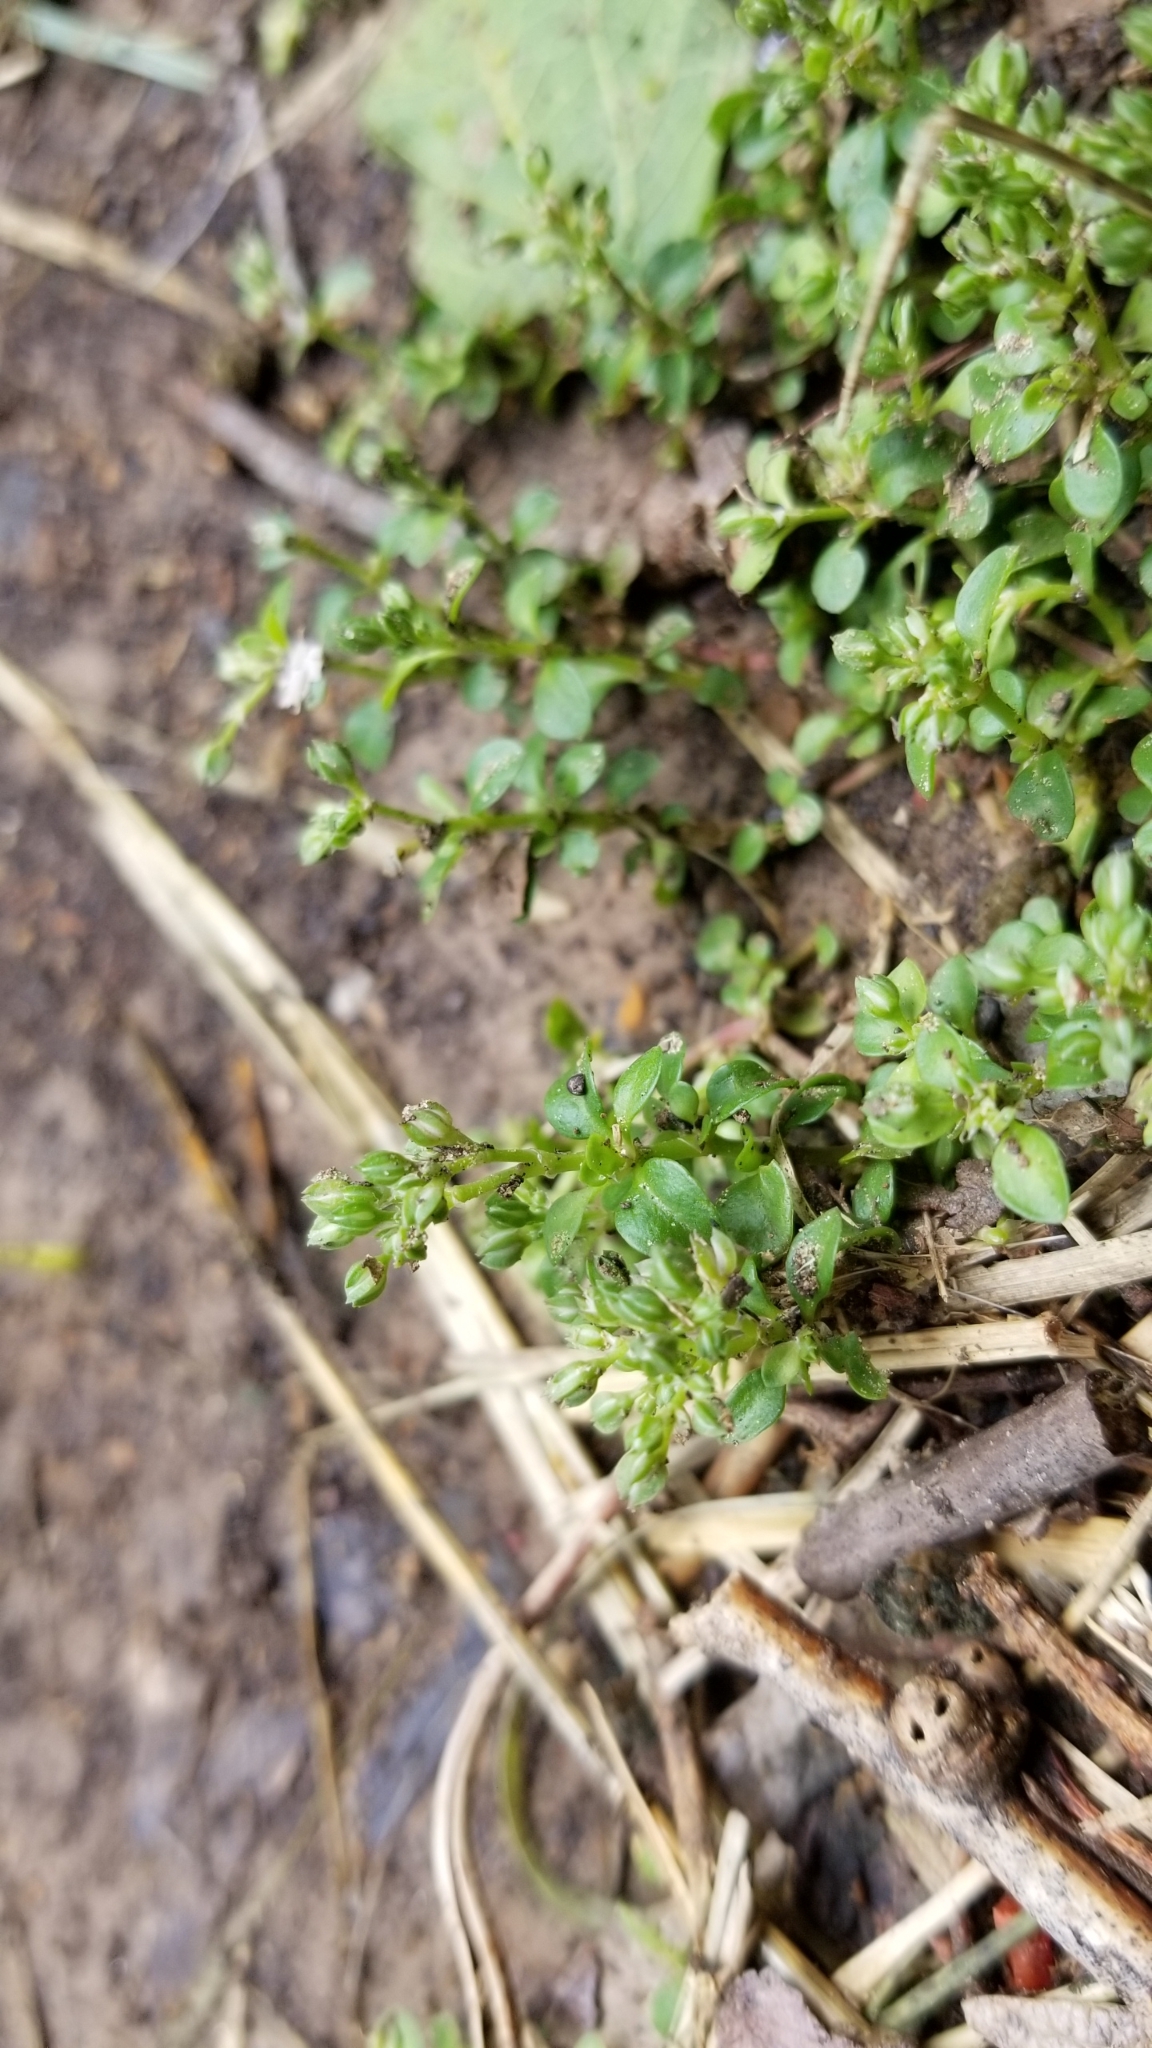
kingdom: Plantae
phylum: Tracheophyta
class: Magnoliopsida
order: Caryophyllales
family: Caryophyllaceae
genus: Polycarpon
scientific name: Polycarpon tetraphyllum
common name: Four-leaved all-seed
